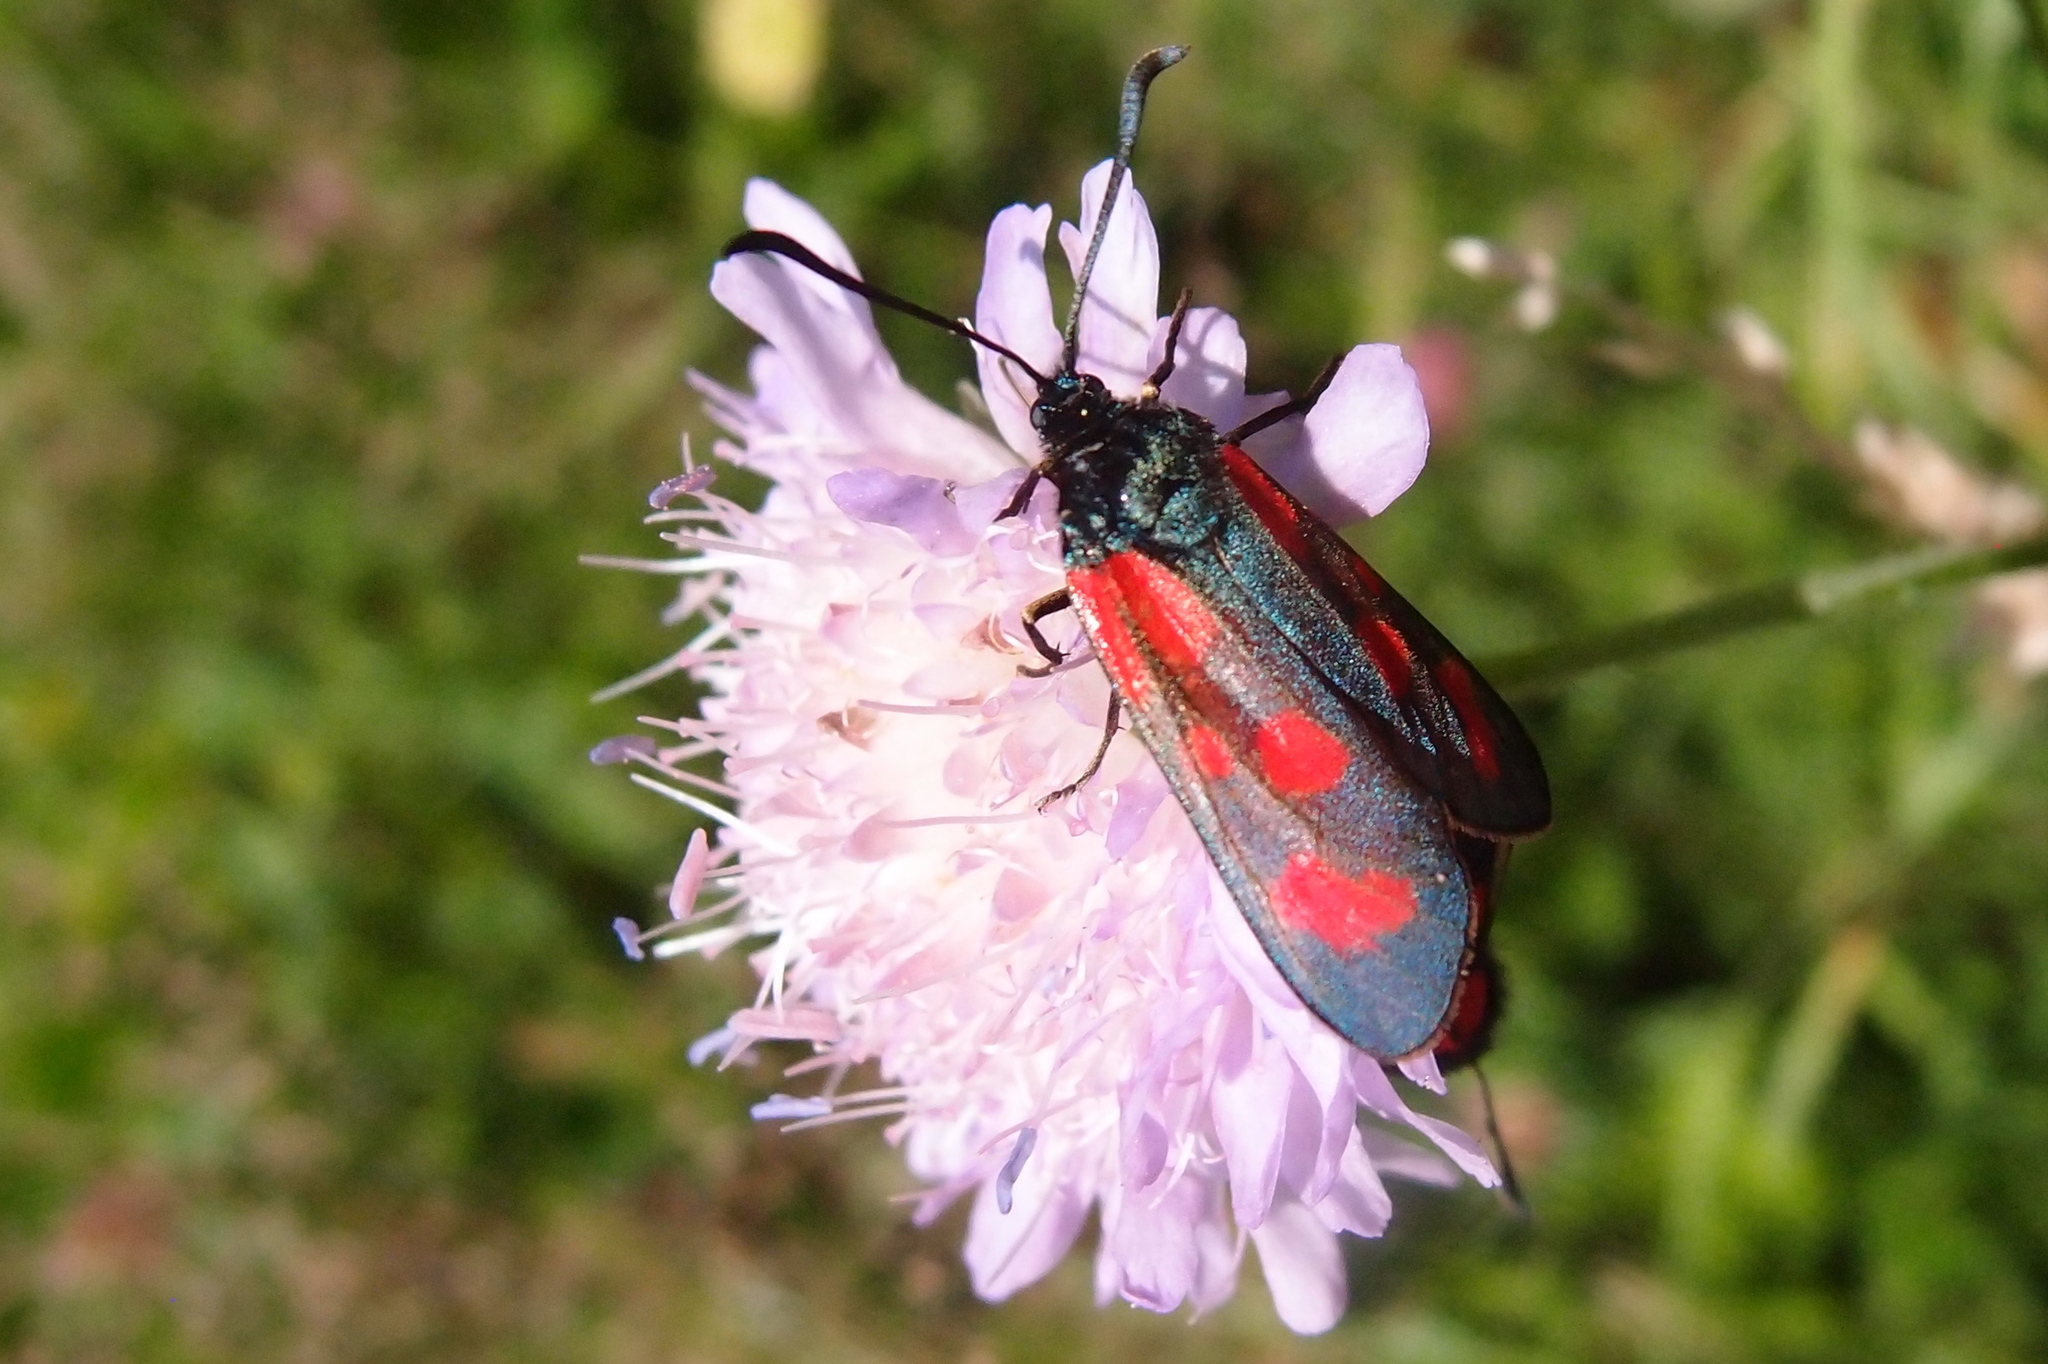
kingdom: Animalia
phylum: Arthropoda
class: Insecta
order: Lepidoptera
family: Zygaenidae
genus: Zygaena
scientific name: Zygaena loti
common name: Slender scotch burnet
